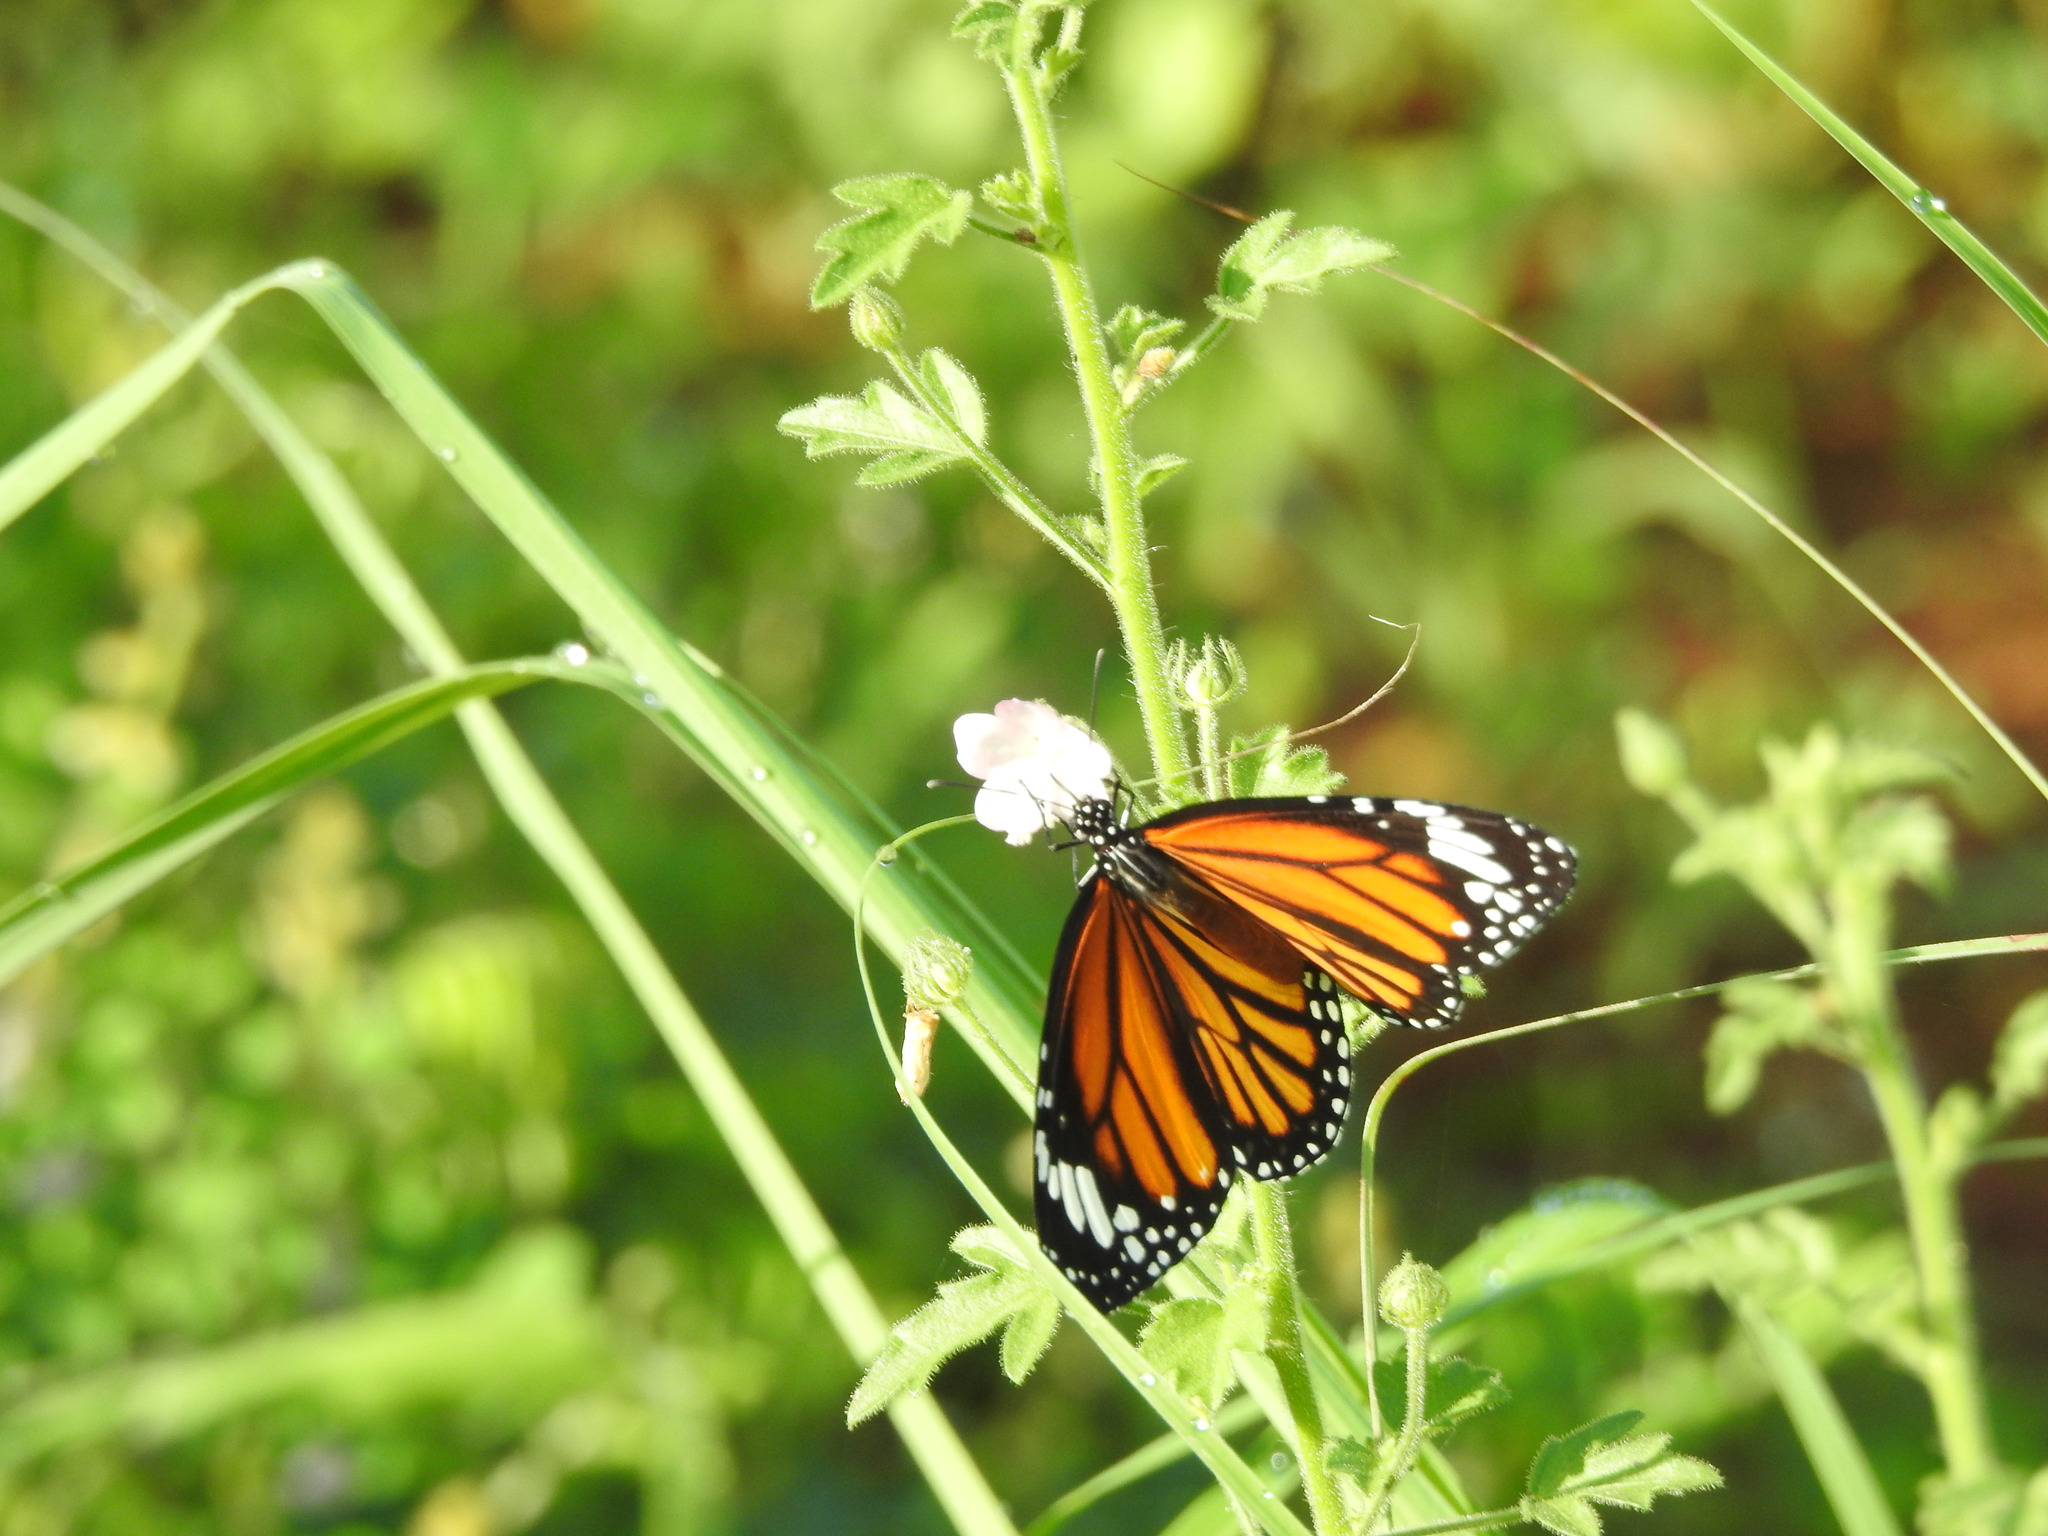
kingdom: Animalia
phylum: Arthropoda
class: Insecta
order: Lepidoptera
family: Nymphalidae
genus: Danaus
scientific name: Danaus genutia
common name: Common tiger butterfly
